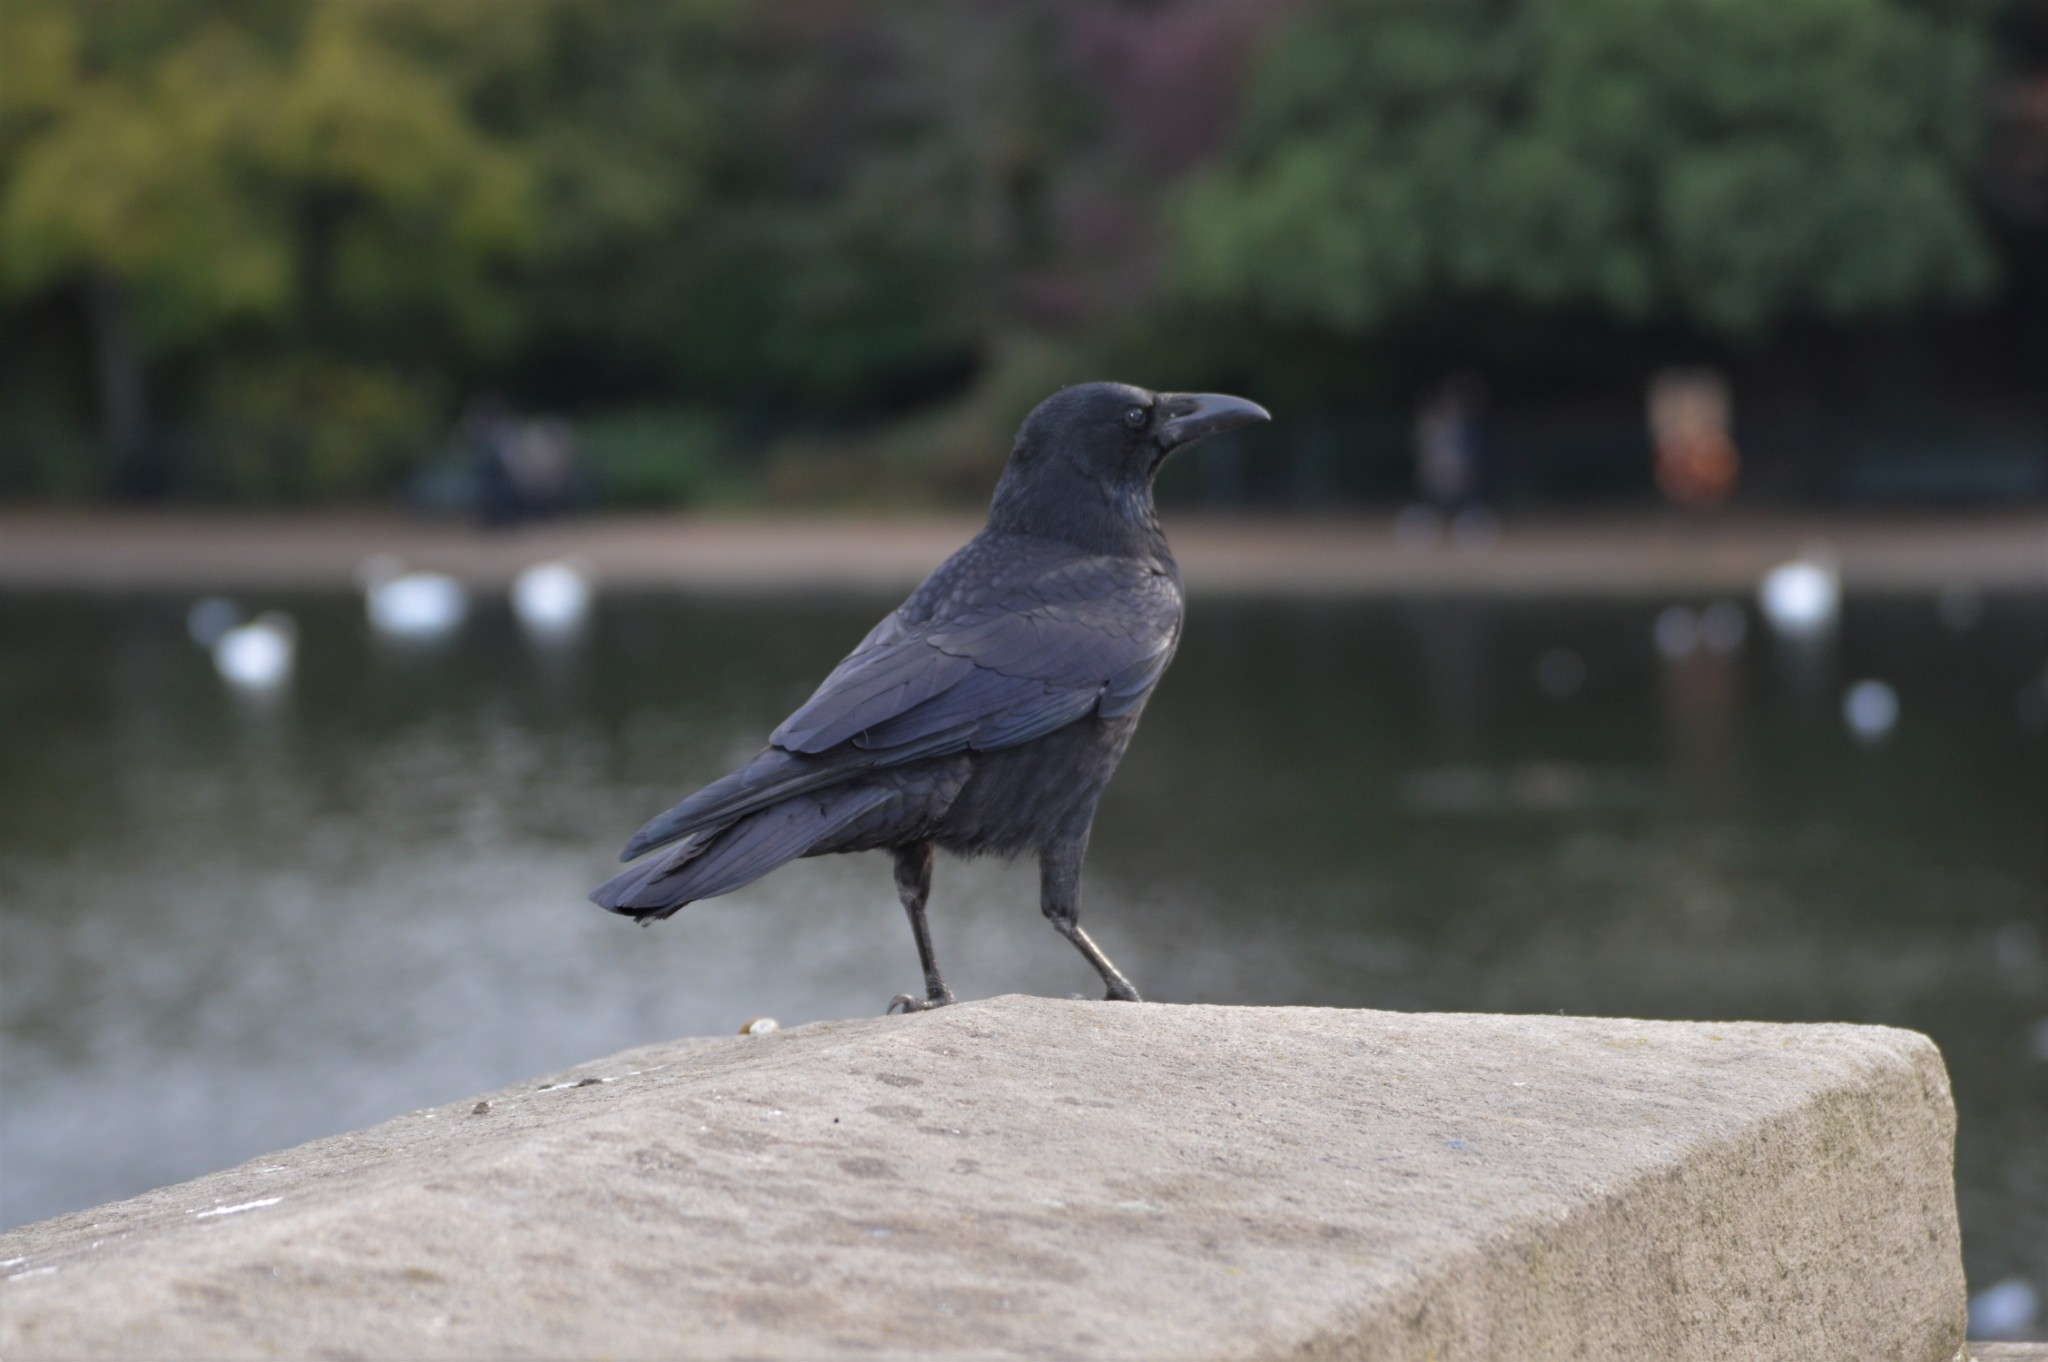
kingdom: Animalia
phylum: Chordata
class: Aves
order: Passeriformes
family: Corvidae
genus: Corvus
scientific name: Corvus corone
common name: Carrion crow
